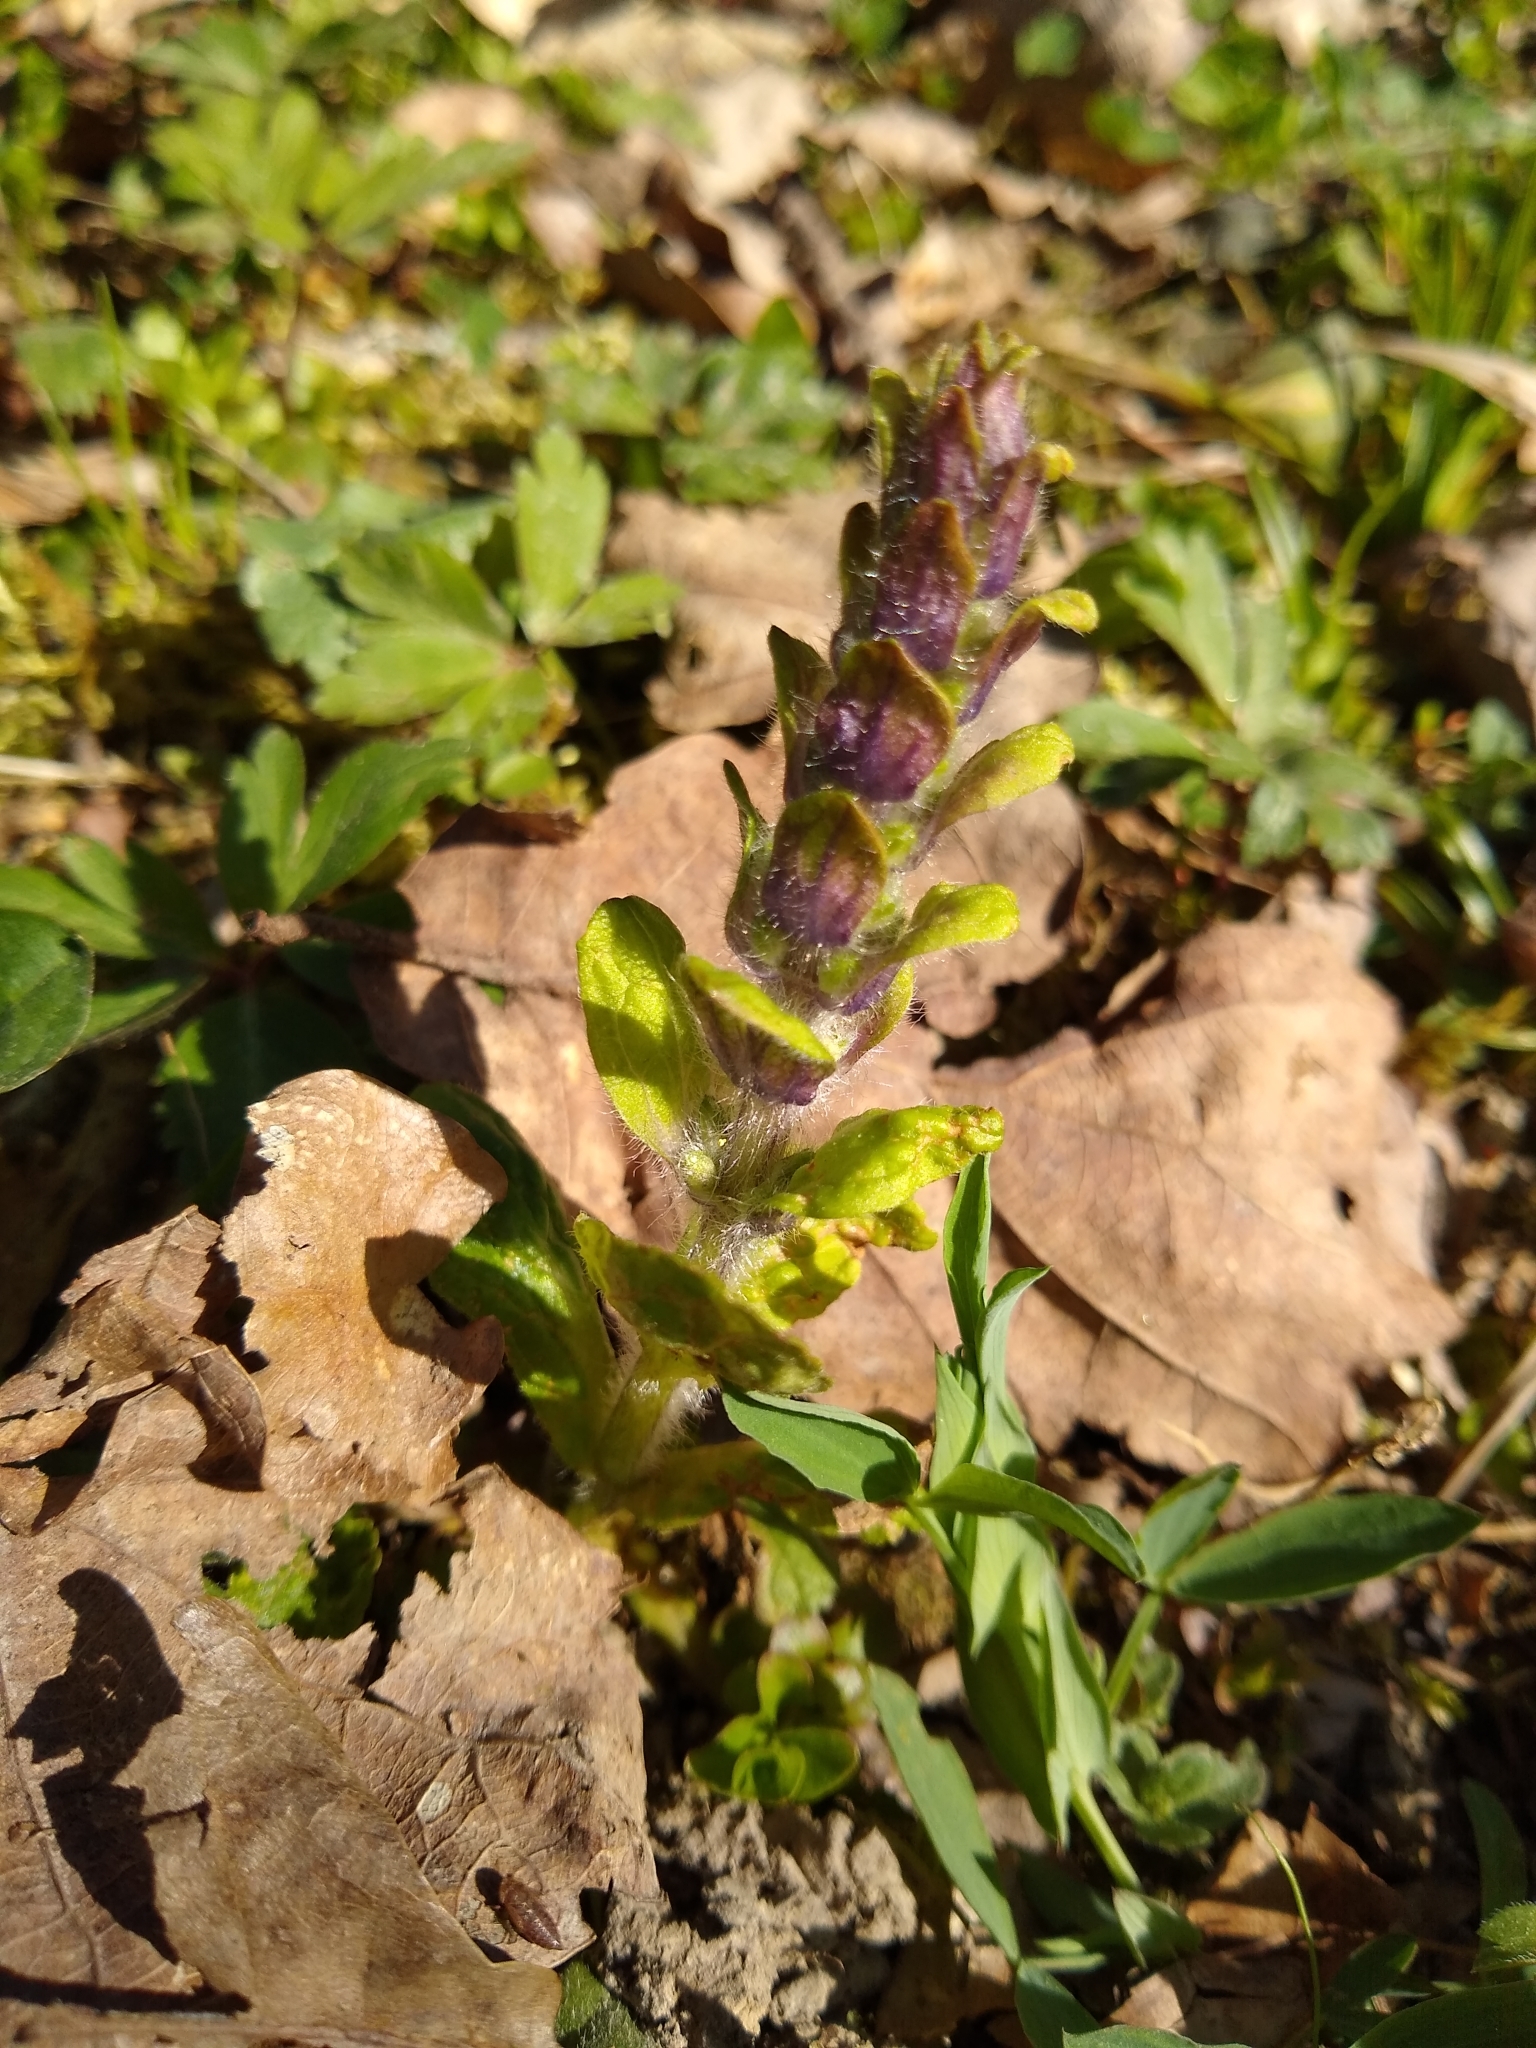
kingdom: Plantae
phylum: Tracheophyta
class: Magnoliopsida
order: Lamiales
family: Lamiaceae
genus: Ajuga
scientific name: Ajuga reptans
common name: Bugle
